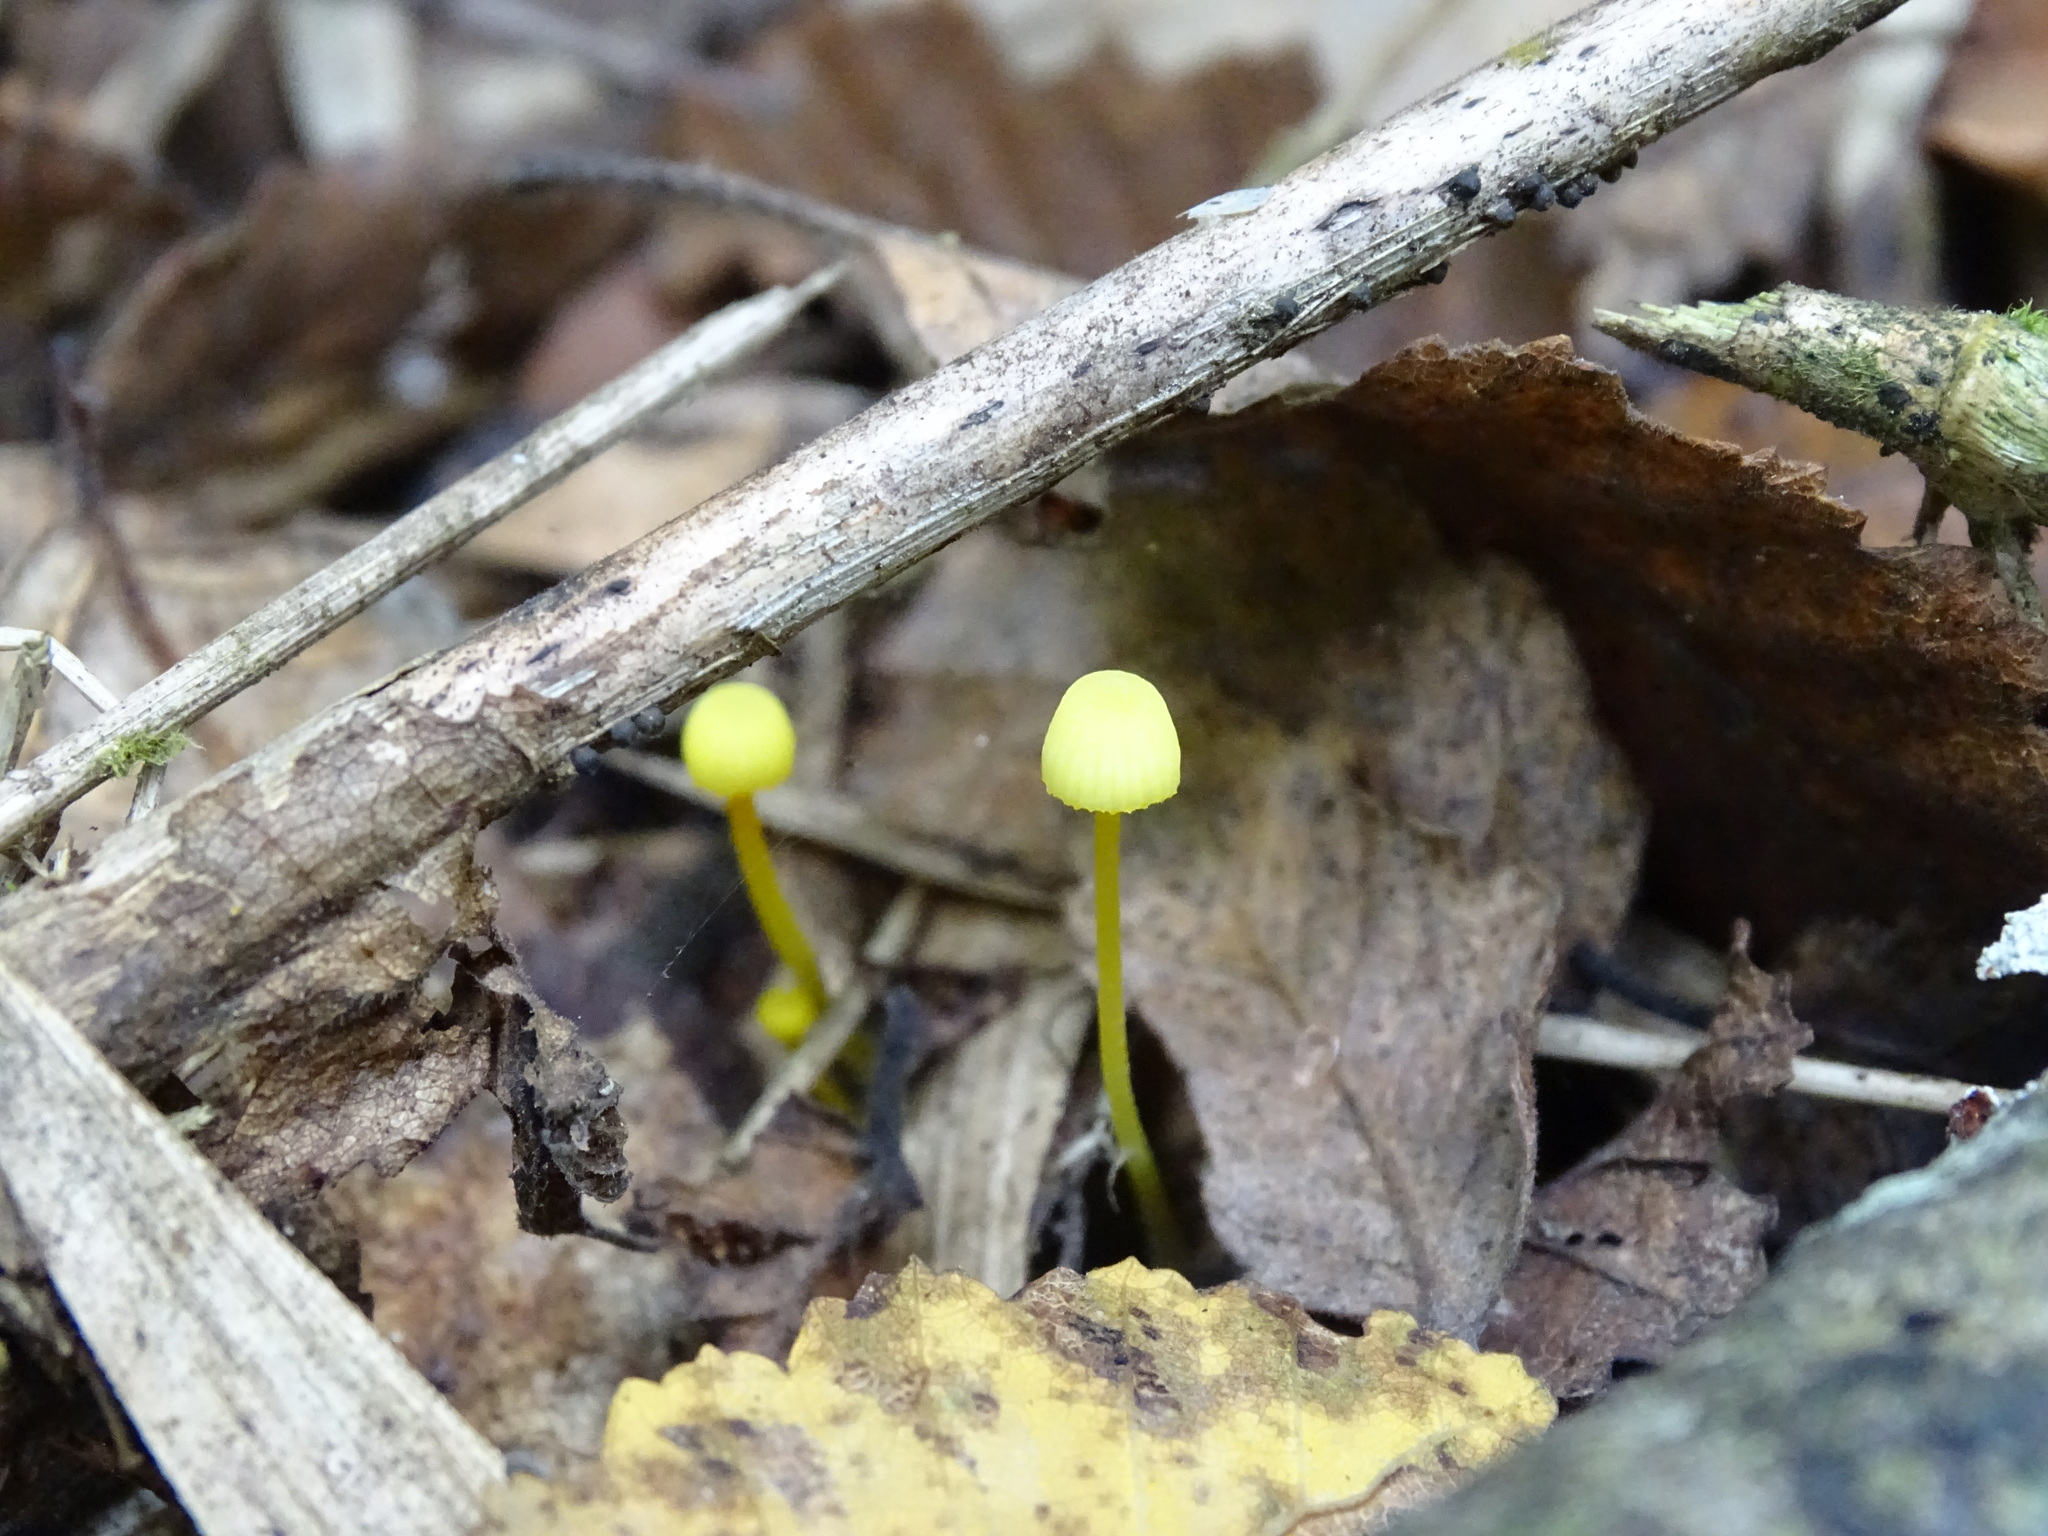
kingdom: Fungi
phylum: Basidiomycota
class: Agaricomycetes
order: Agaricales
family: Mycenaceae
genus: Mycena
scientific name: Mycena chusqueophila
